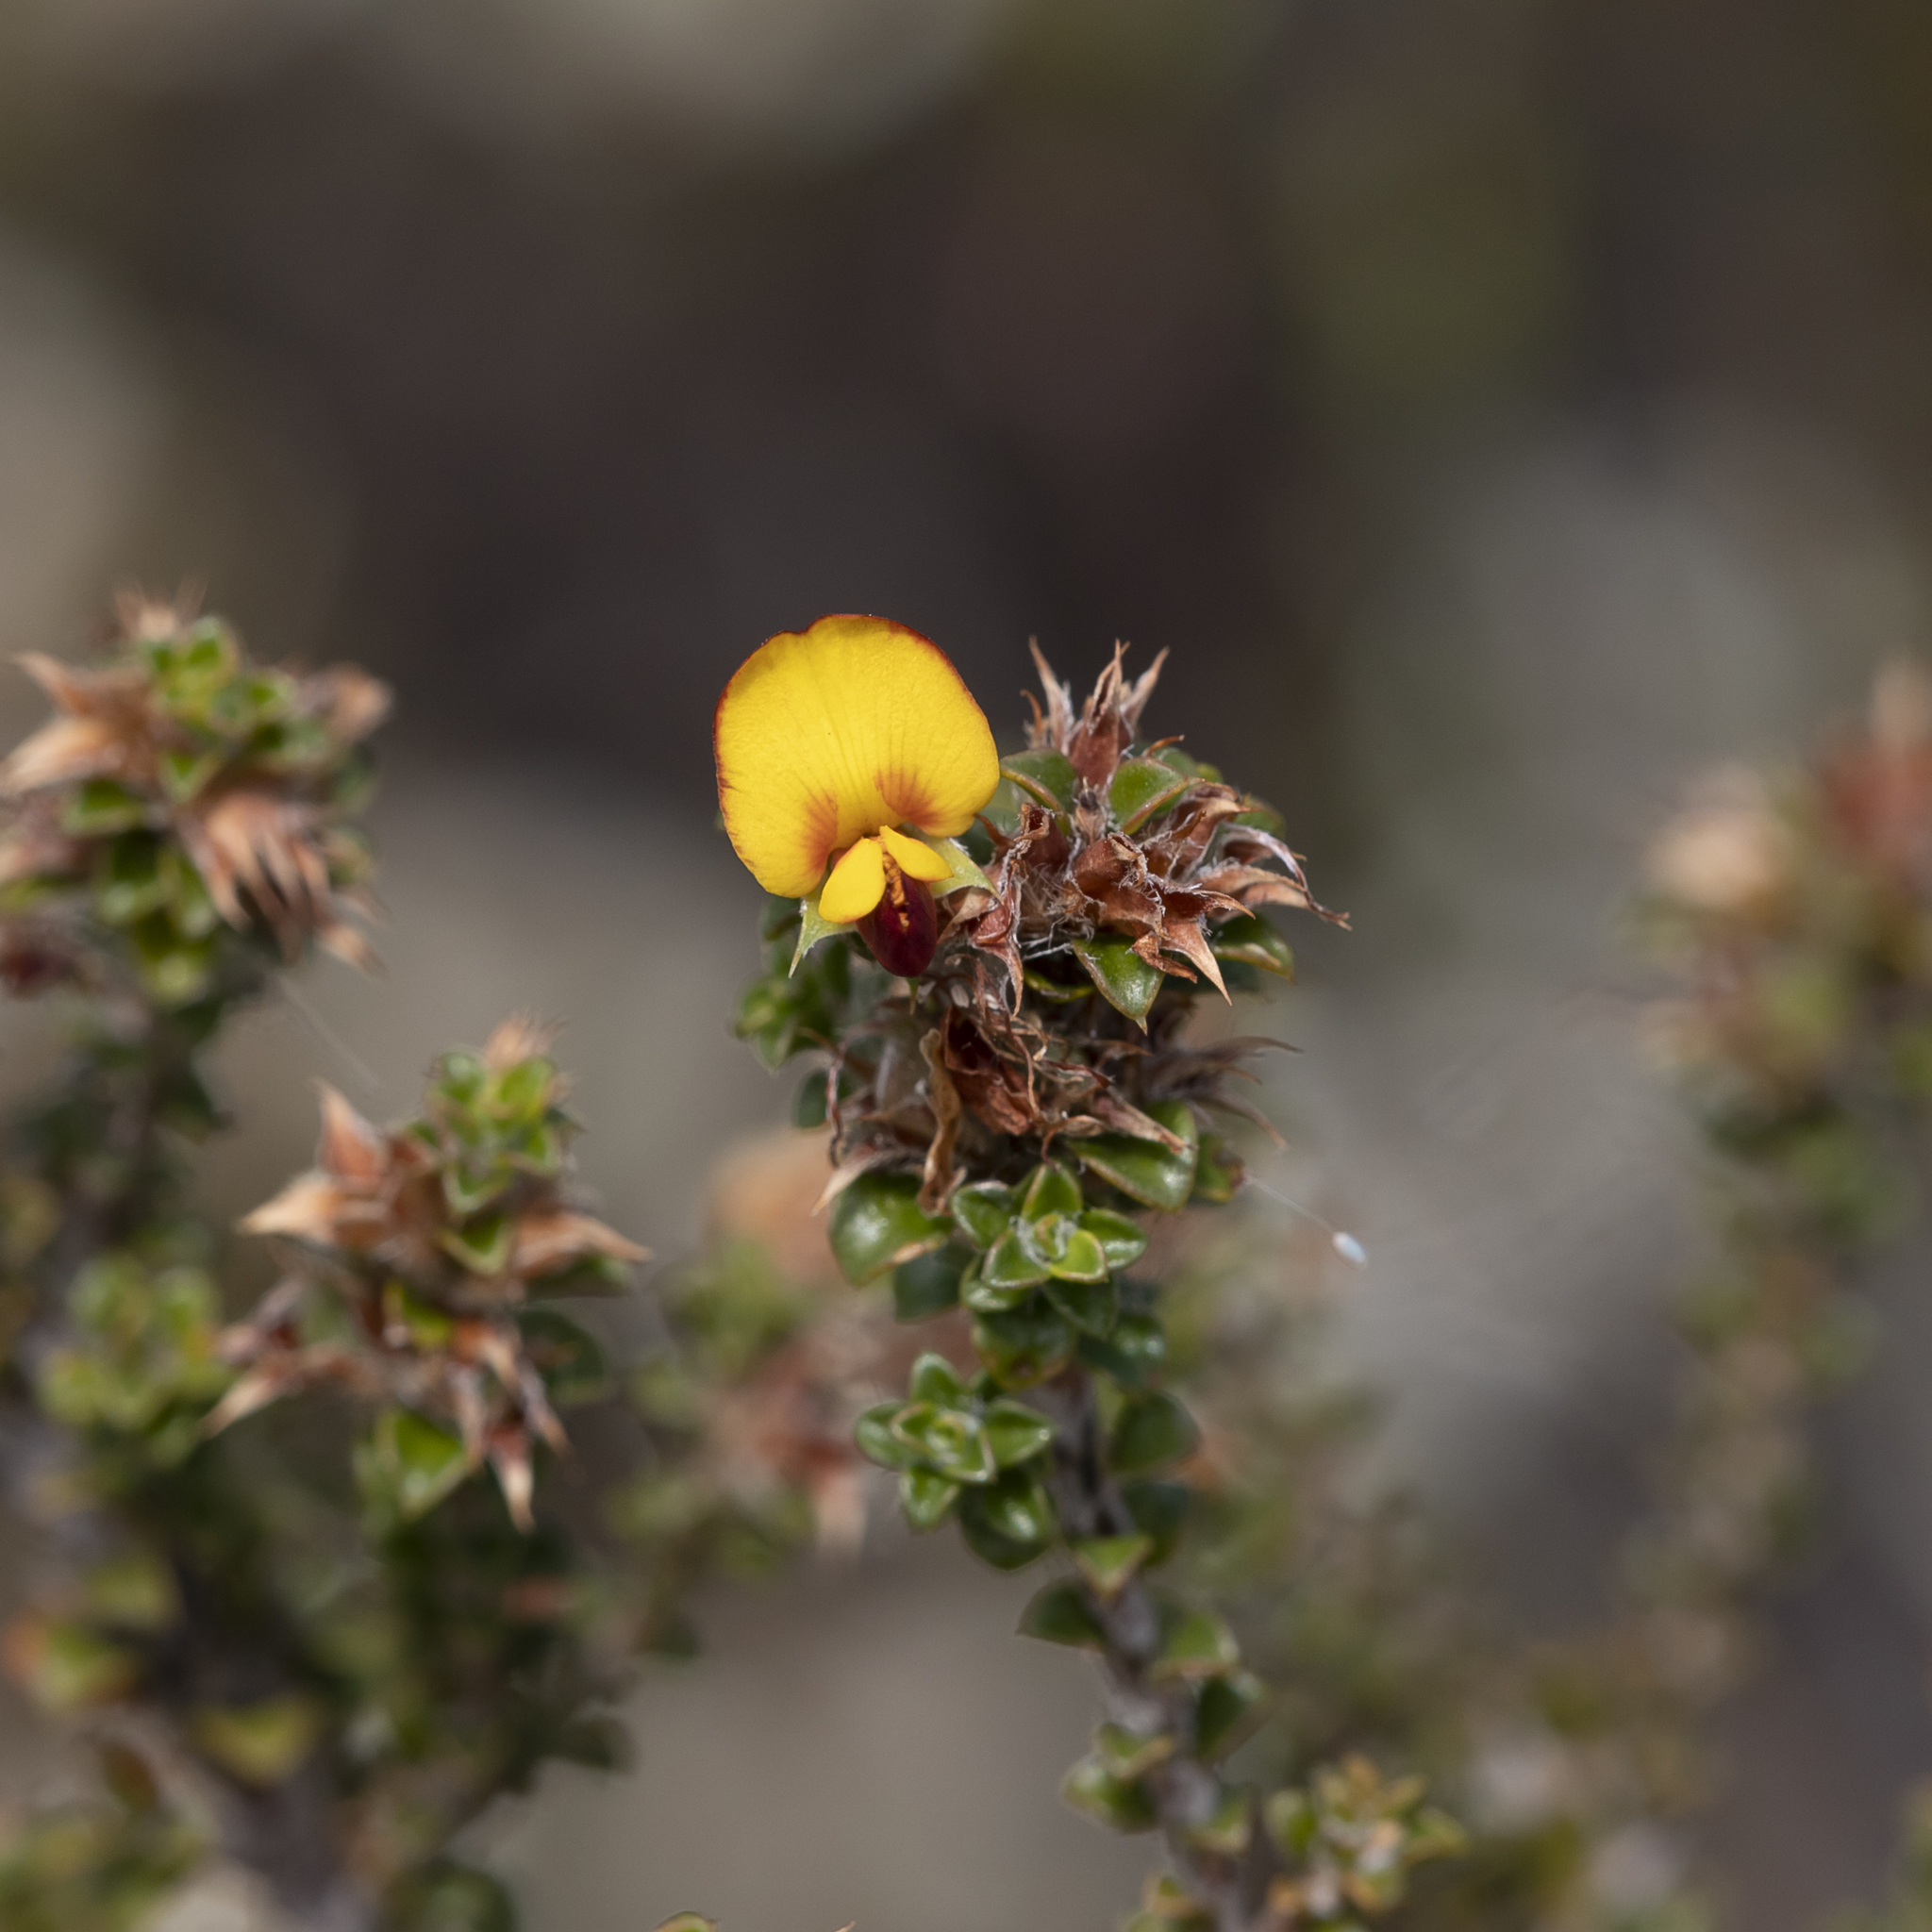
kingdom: Plantae
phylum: Tracheophyta
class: Magnoliopsida
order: Fabales
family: Fabaceae
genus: Pultenaea
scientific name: Pultenaea densifolia
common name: Dense-leaf bush-pea
